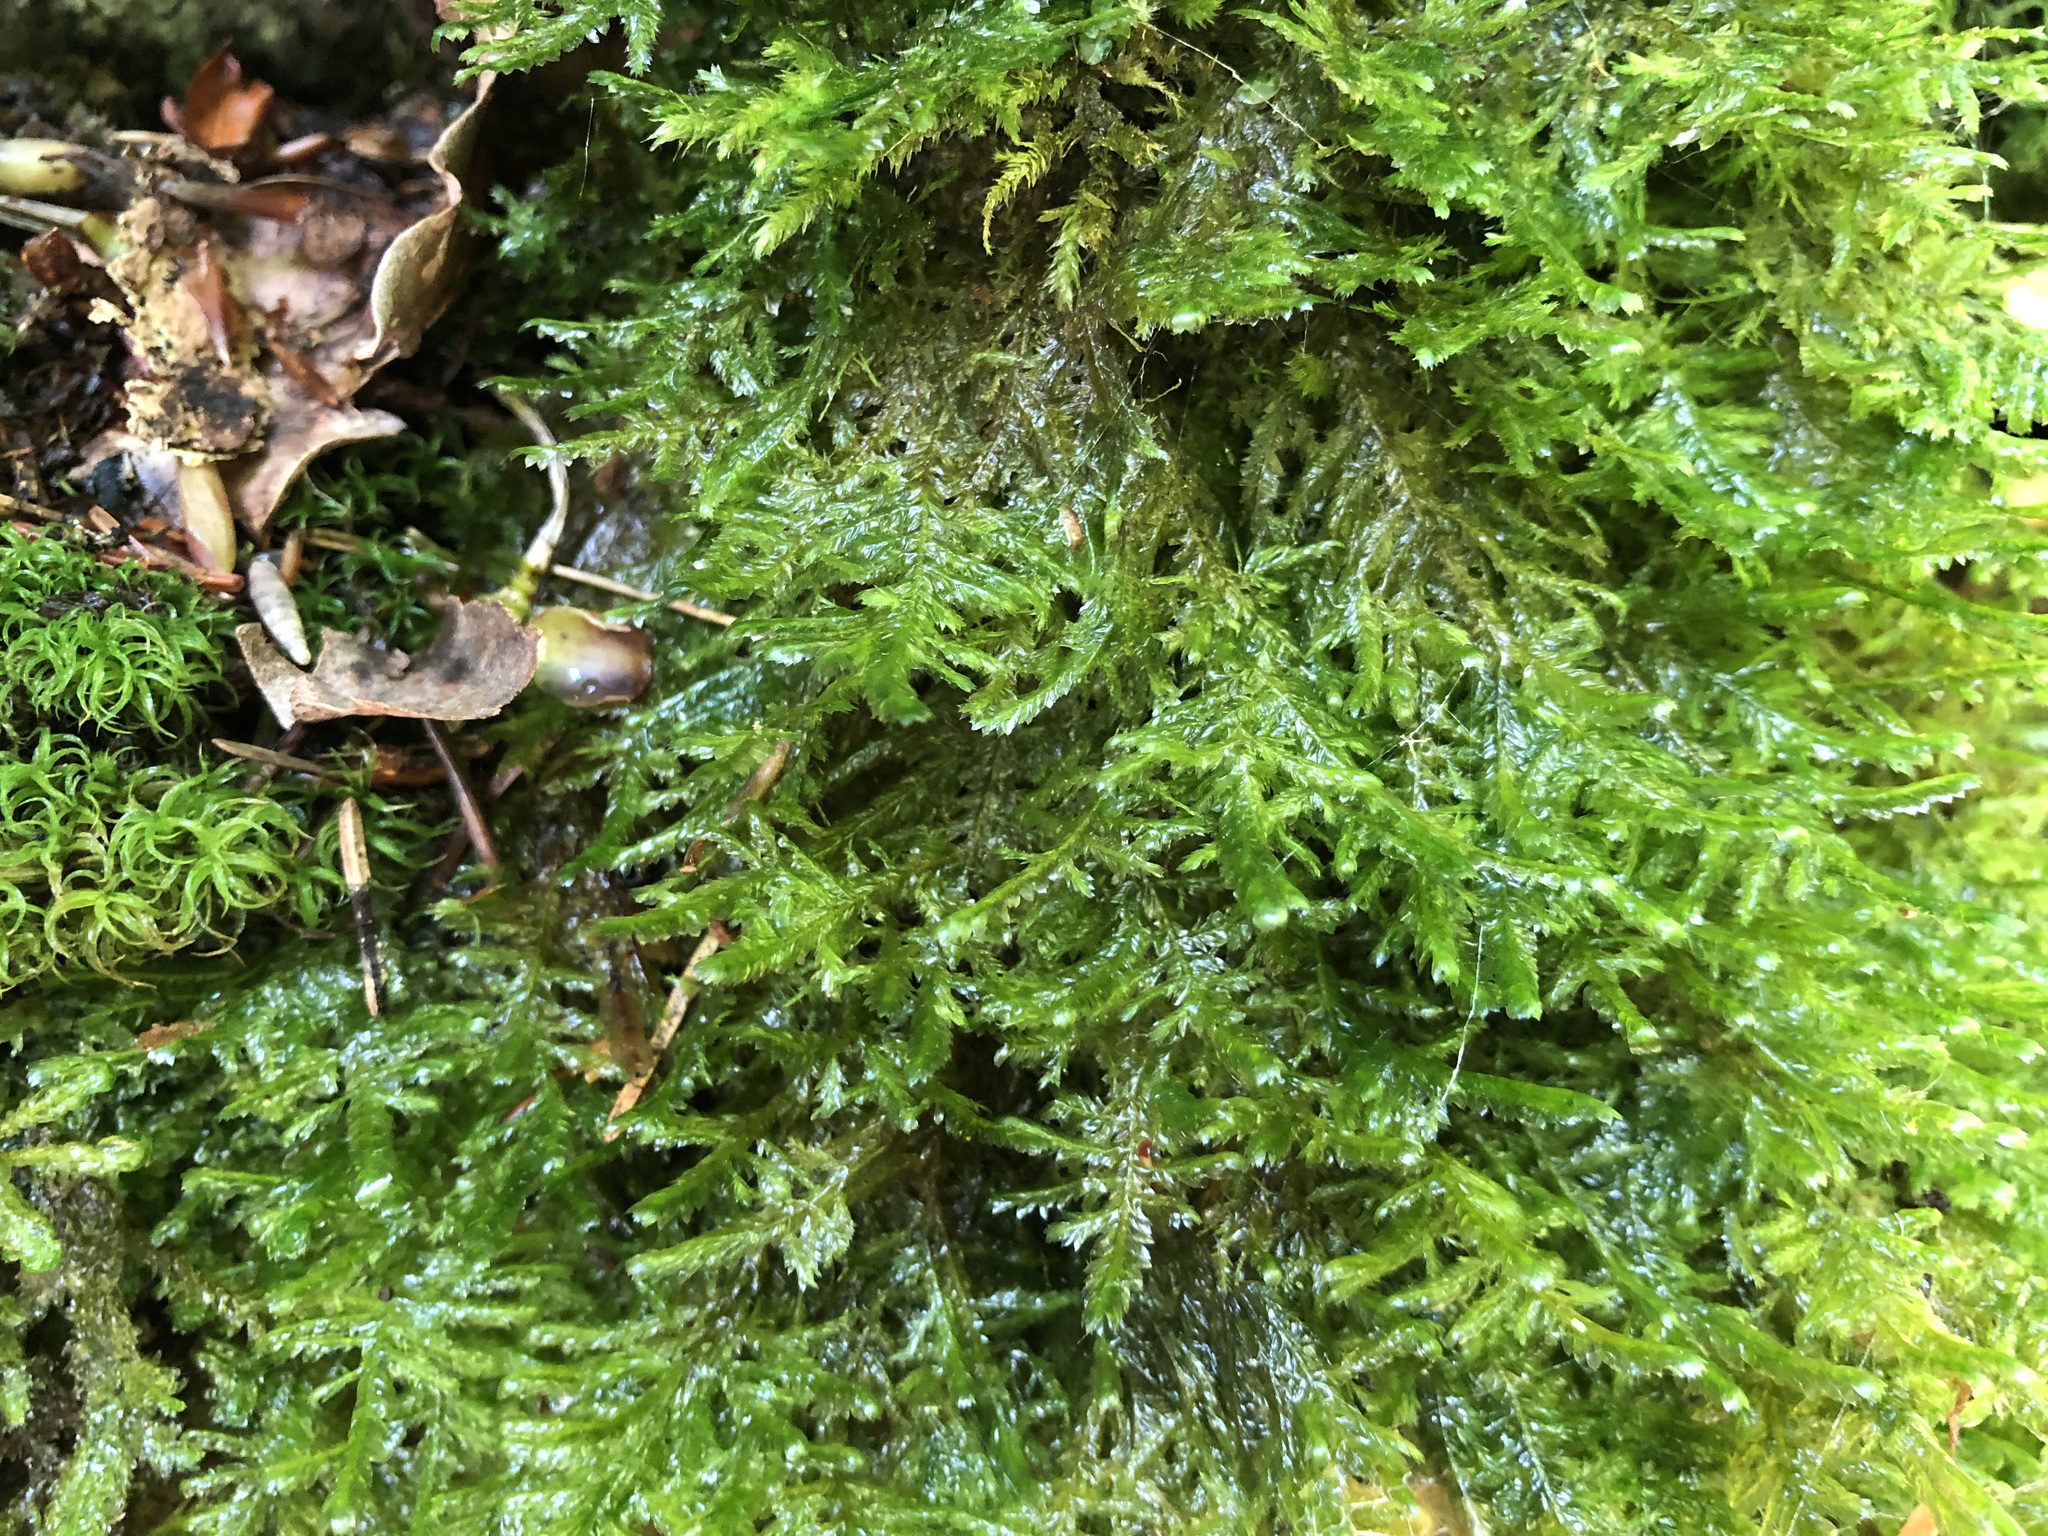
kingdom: Plantae
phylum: Bryophyta
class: Bryopsida
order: Hypnales
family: Neckeraceae
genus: Alleniella
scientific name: Alleniella complanata
